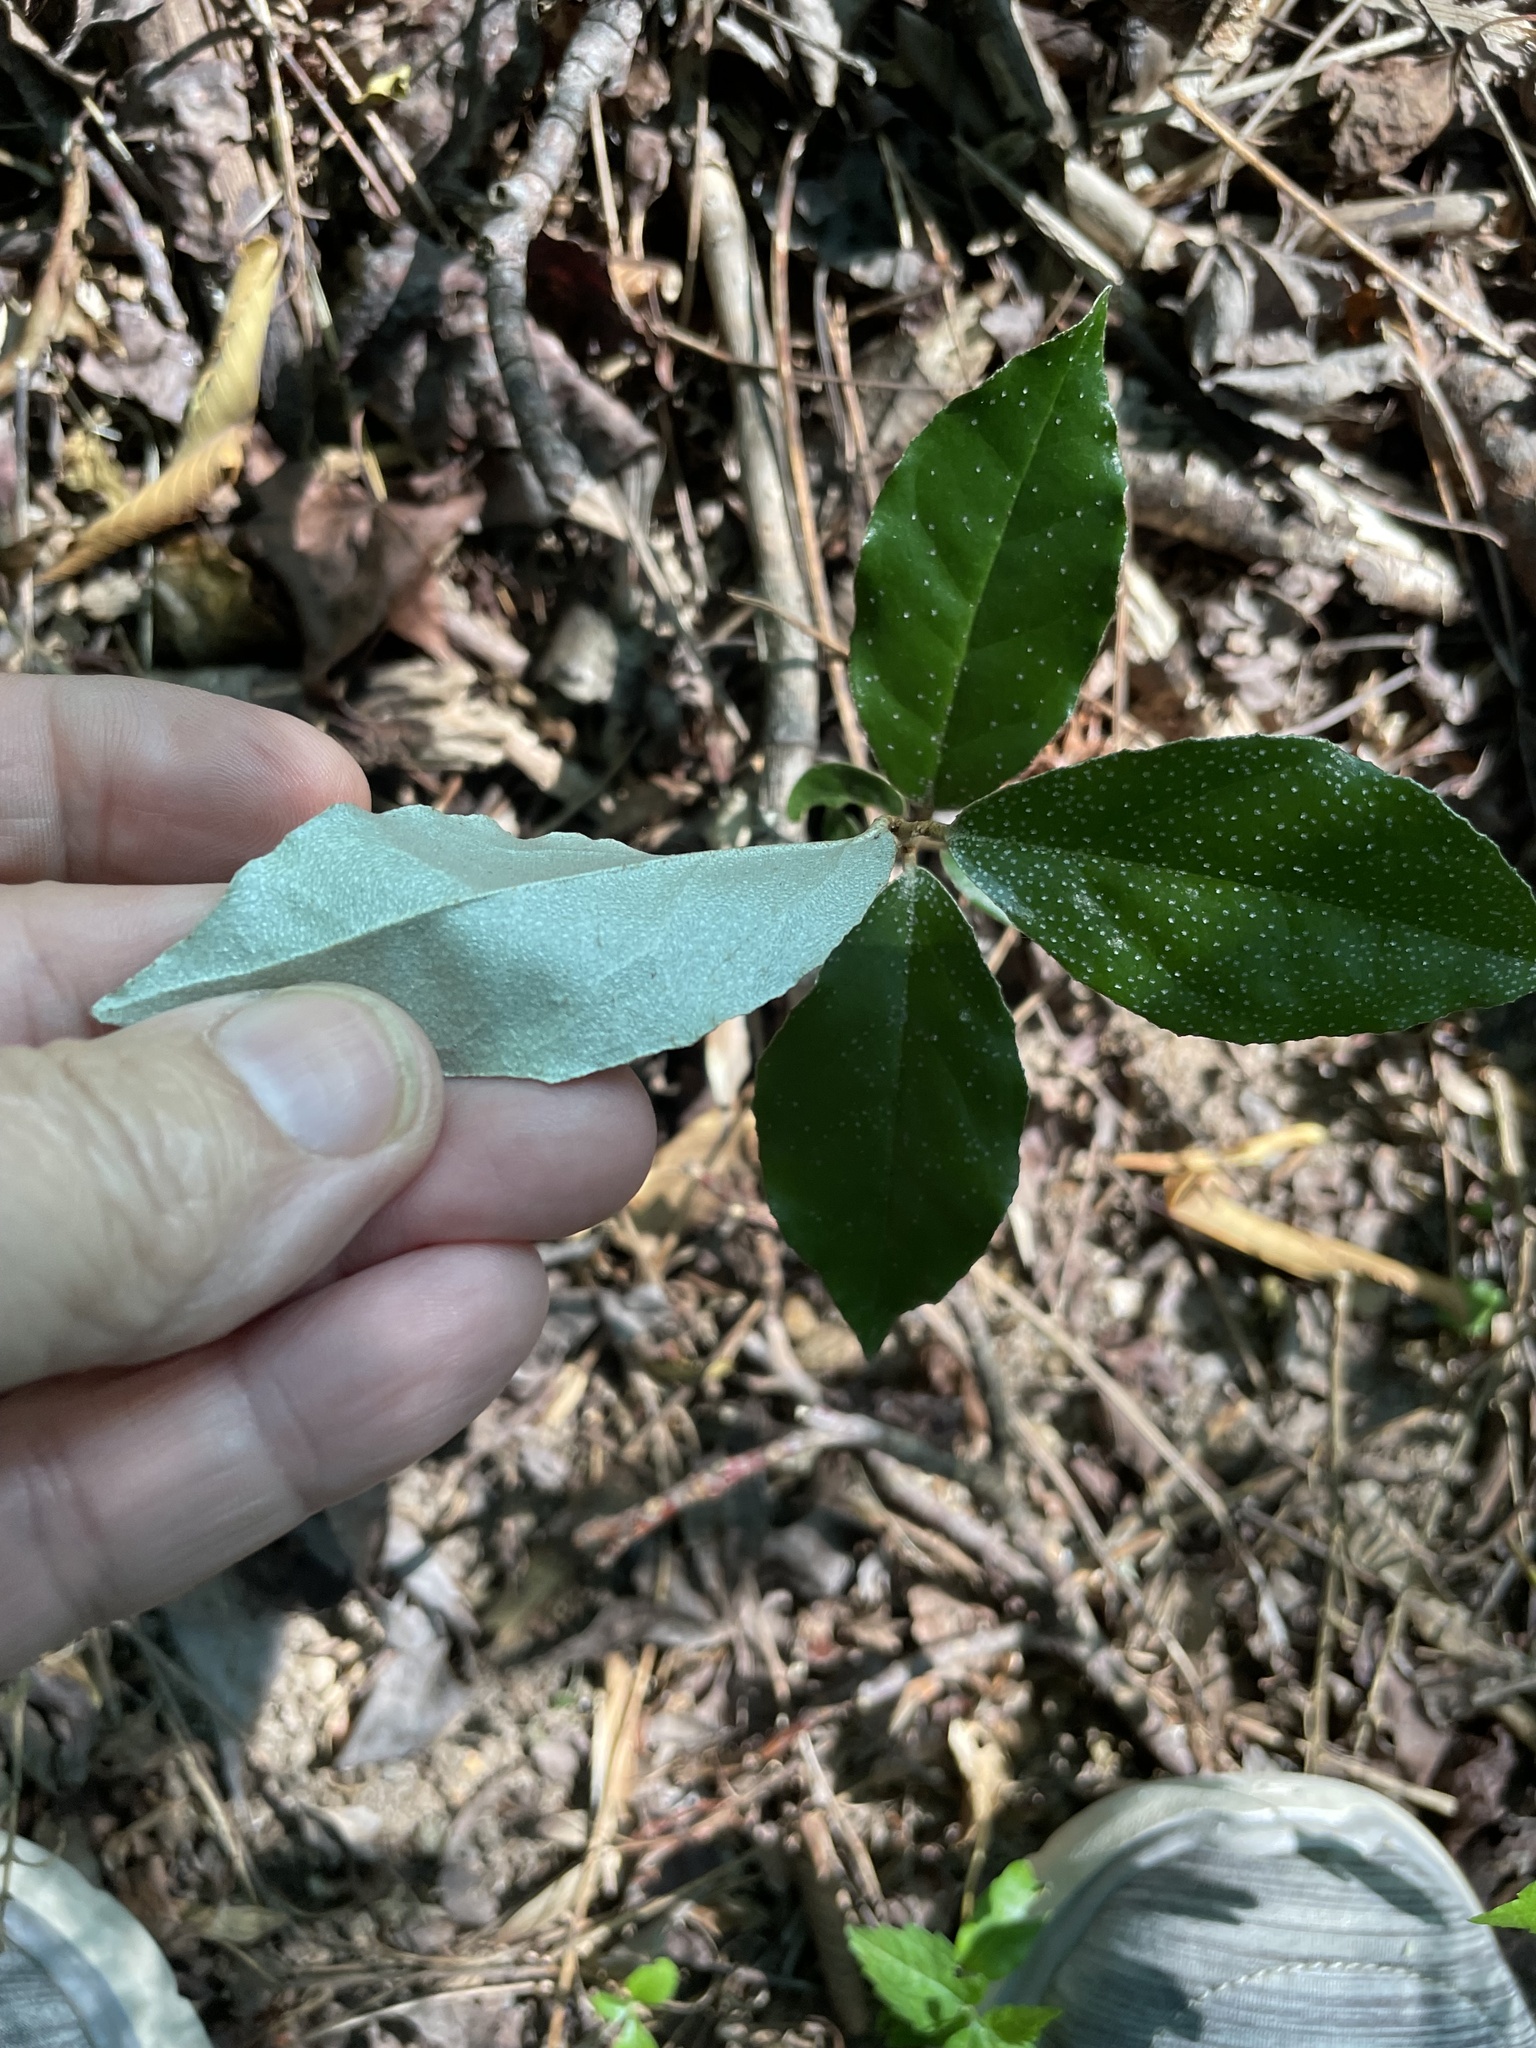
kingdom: Plantae
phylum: Tracheophyta
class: Magnoliopsida
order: Rosales
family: Elaeagnaceae
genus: Elaeagnus
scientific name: Elaeagnus pungens
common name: Spiny oleaster
